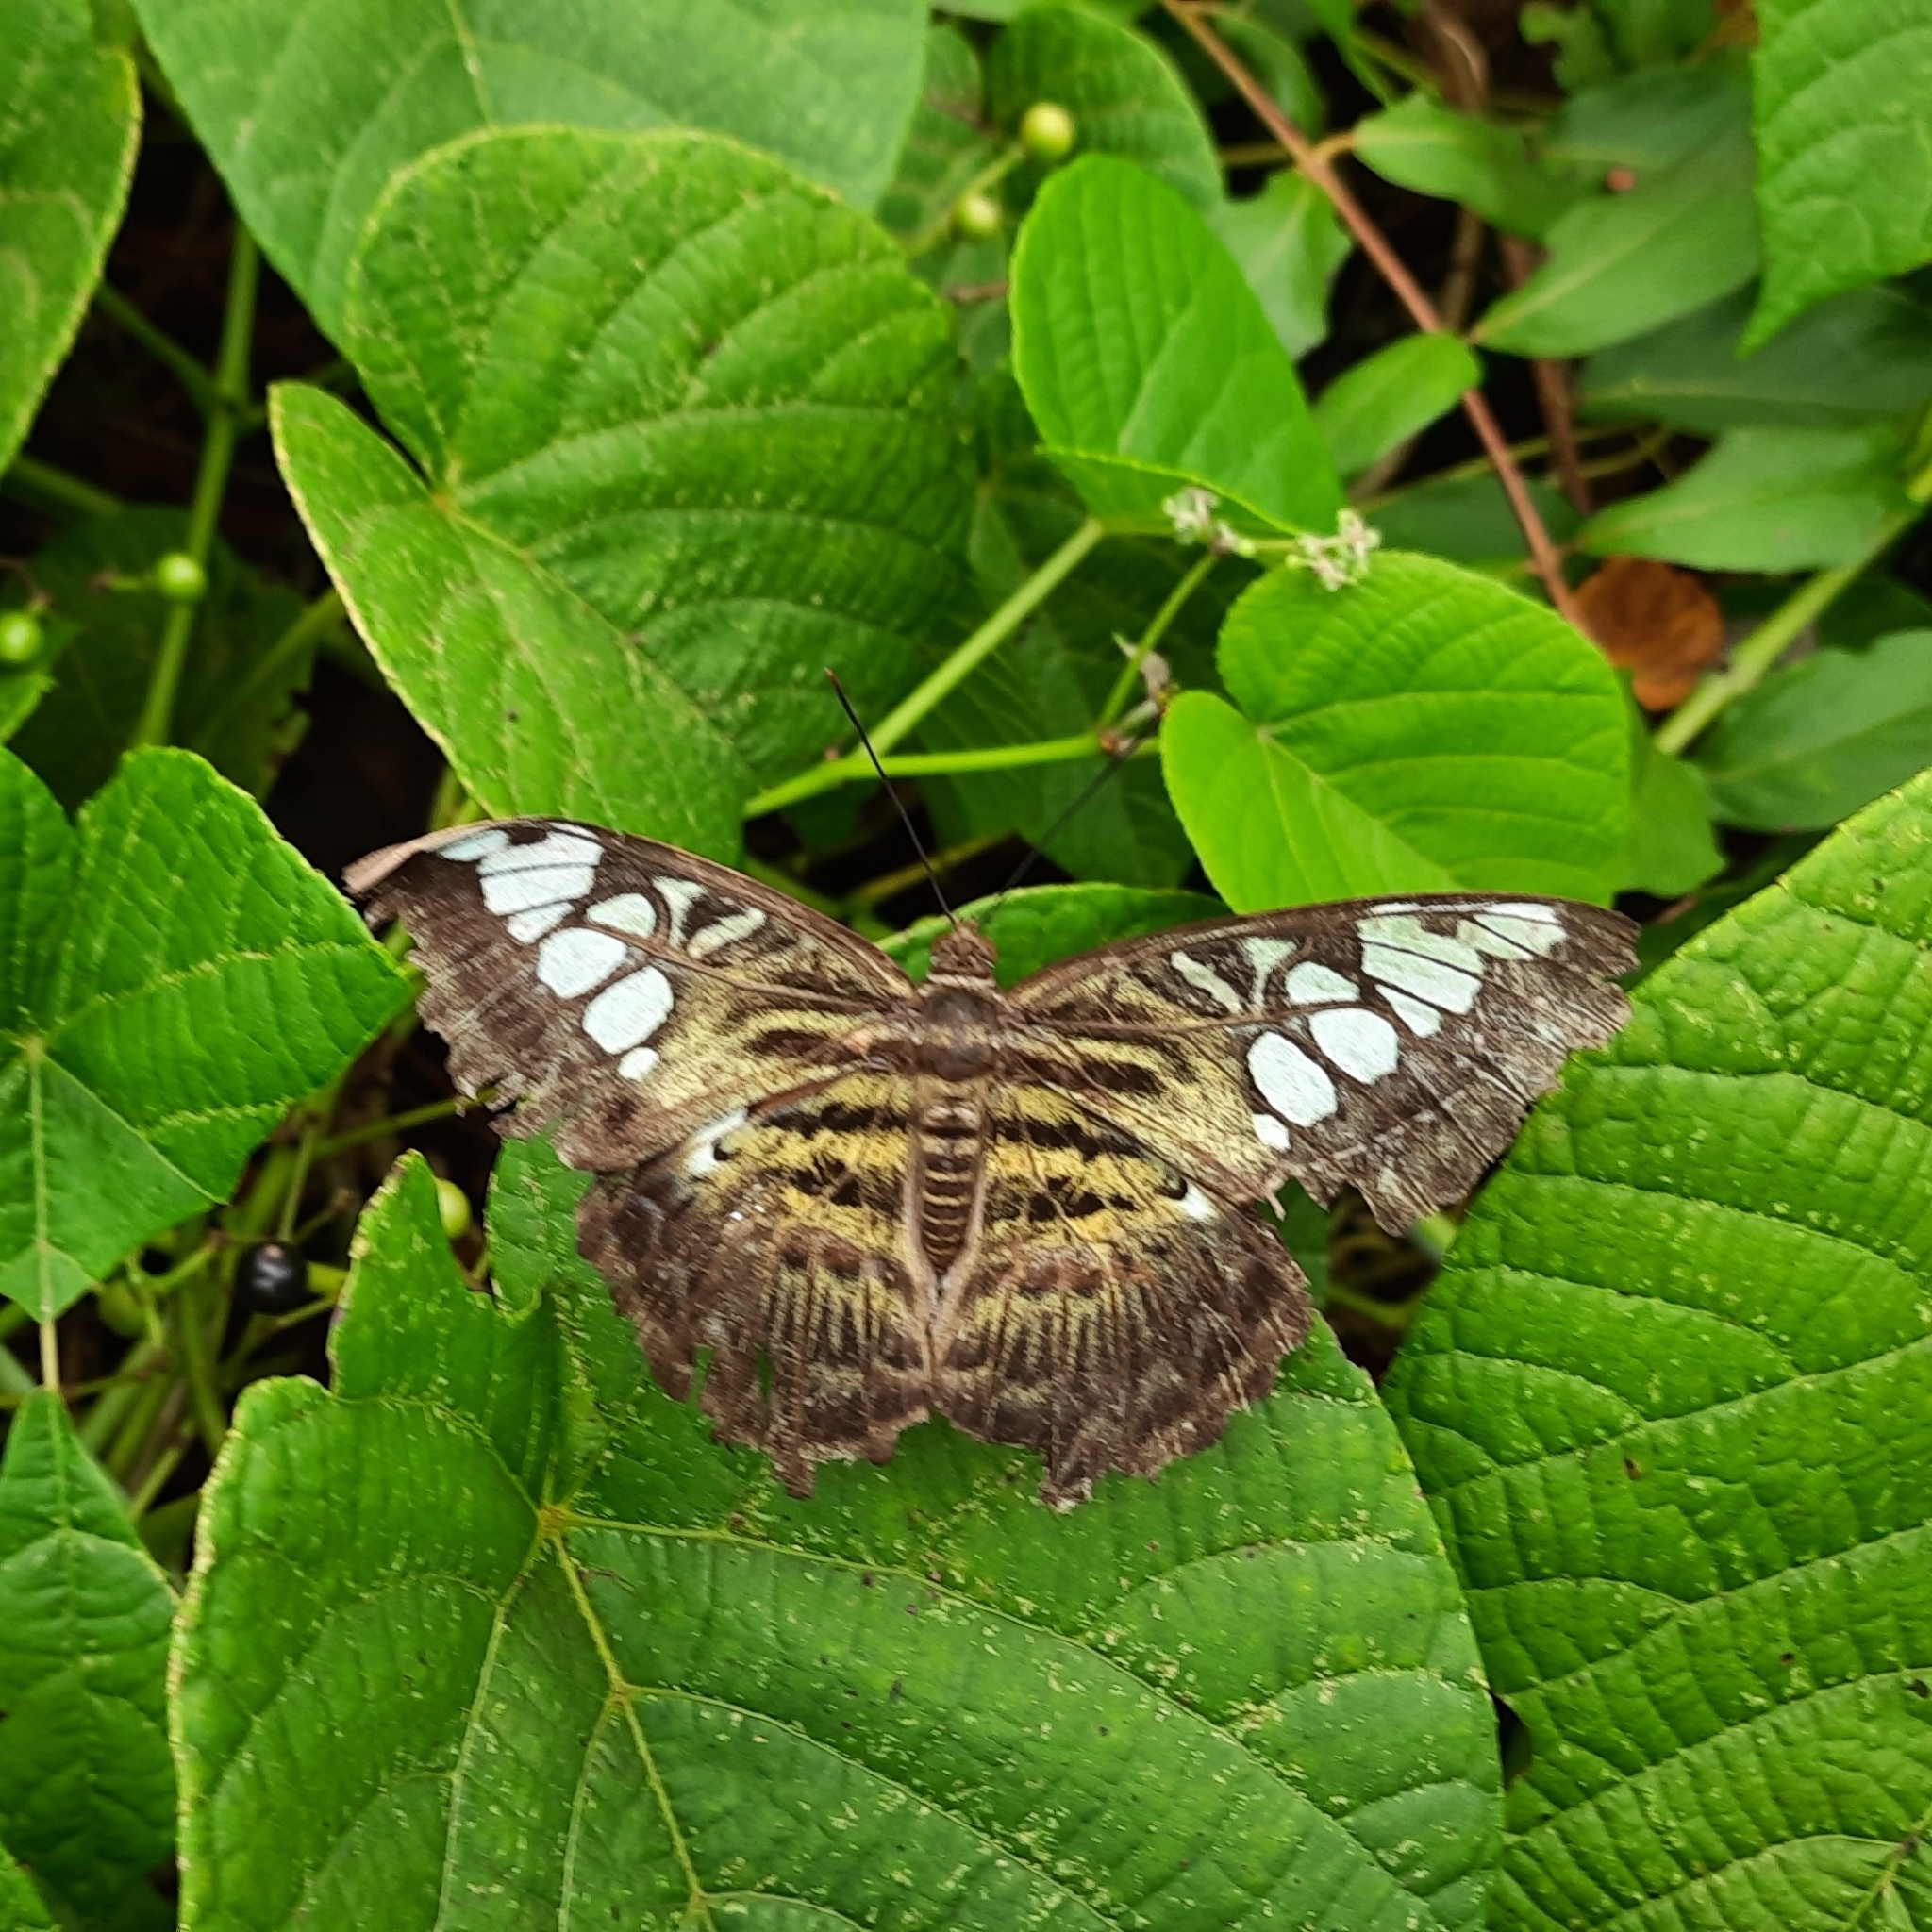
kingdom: Animalia
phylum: Arthropoda
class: Insecta
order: Lepidoptera
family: Nymphalidae
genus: Kallima
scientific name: Kallima sylvia
